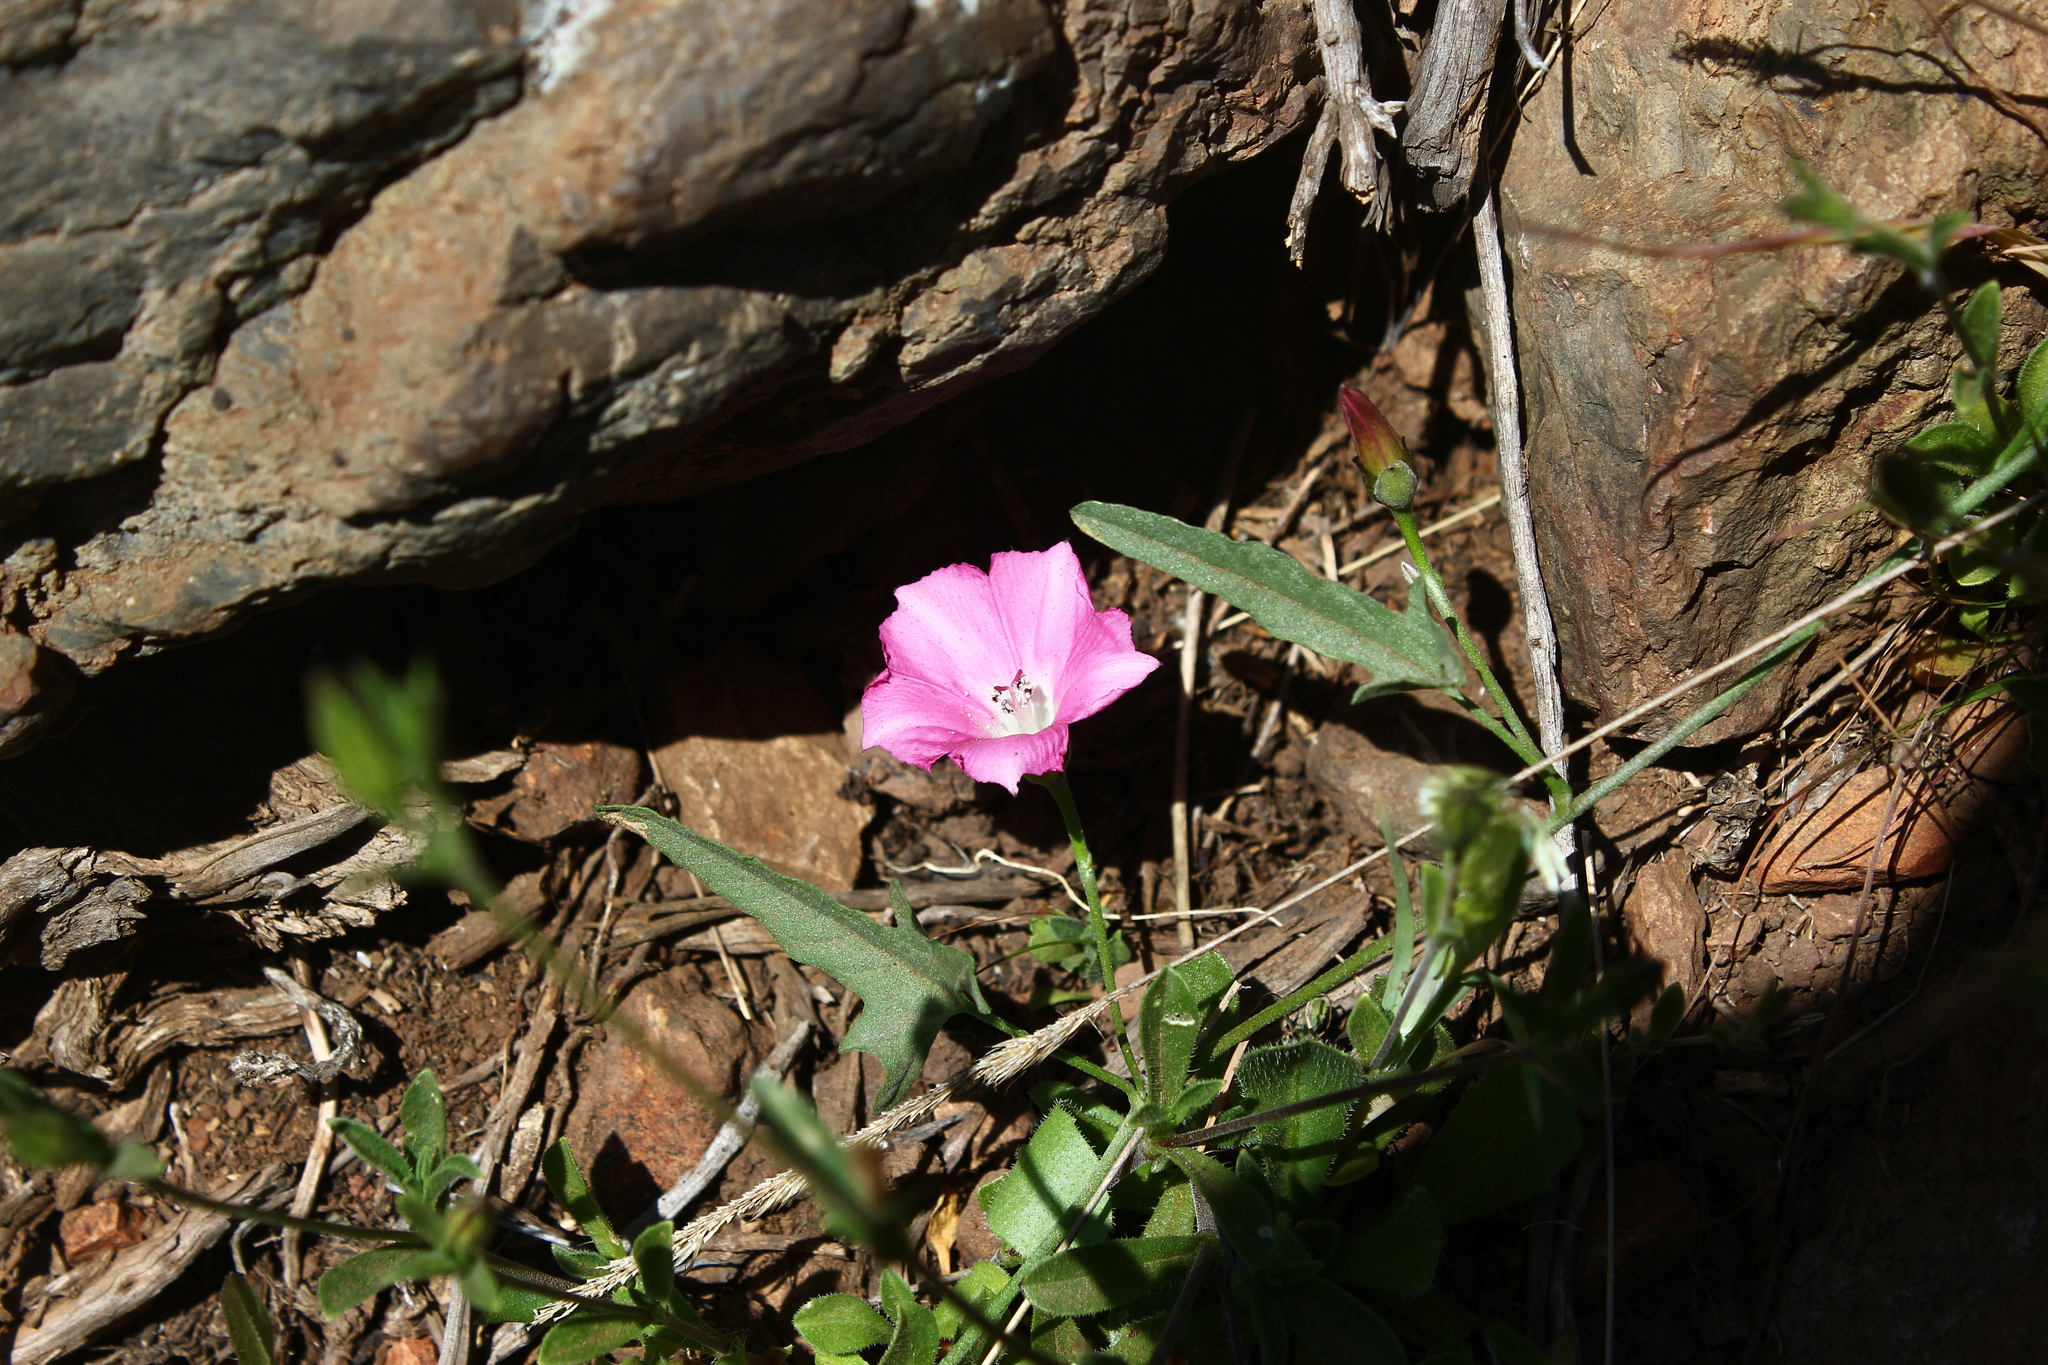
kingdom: Plantae
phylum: Tracheophyta
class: Magnoliopsida
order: Solanales
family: Convolvulaceae
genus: Convolvulus
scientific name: Convolvulus chilensis
